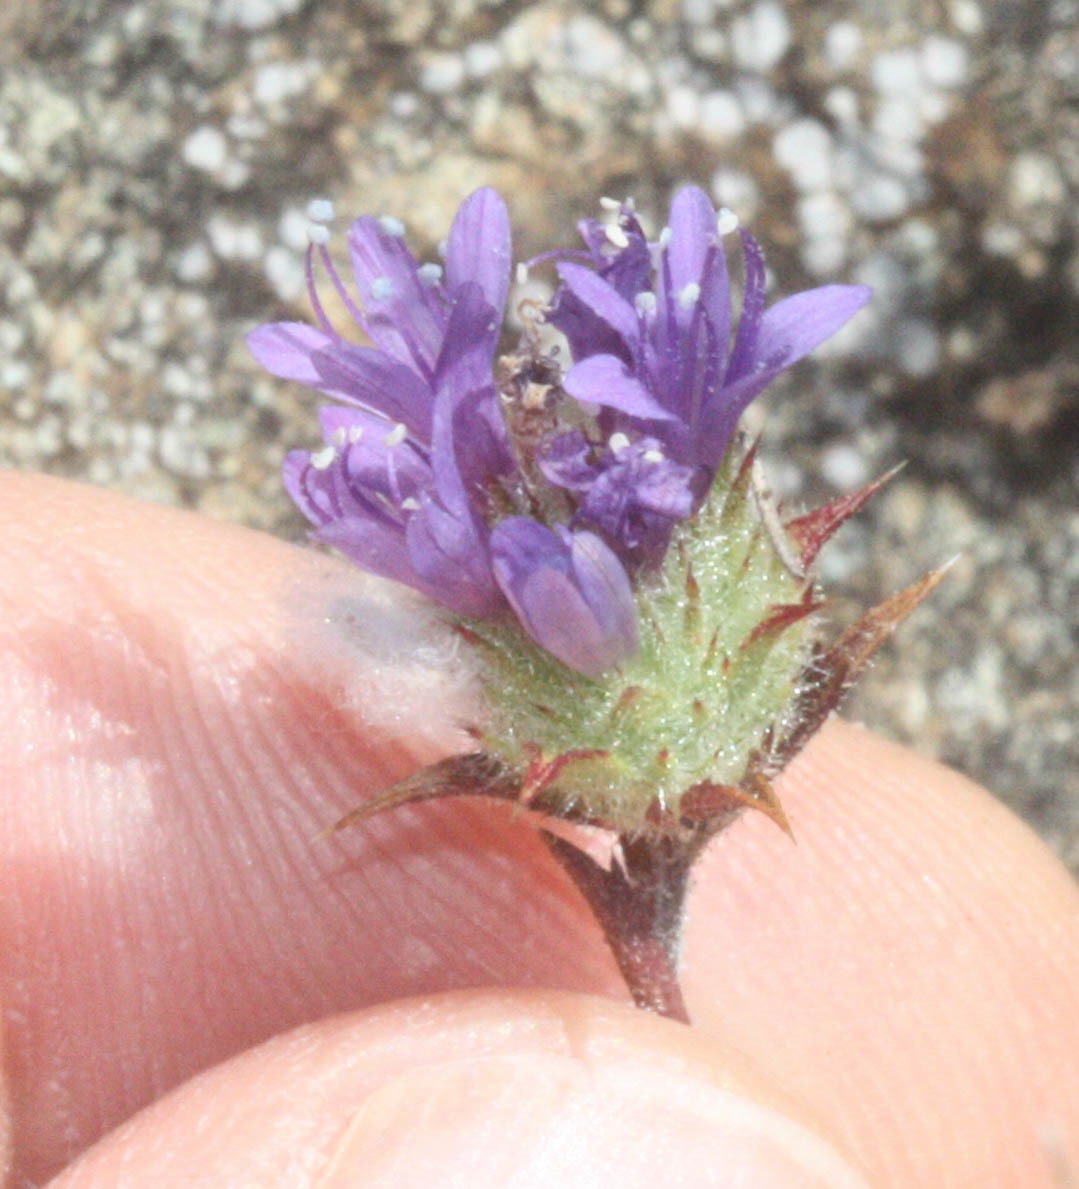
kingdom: Plantae
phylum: Tracheophyta
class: Magnoliopsida
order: Ericales
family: Polemoniaceae
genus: Navarretia
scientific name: Navarretia heterodoxa
